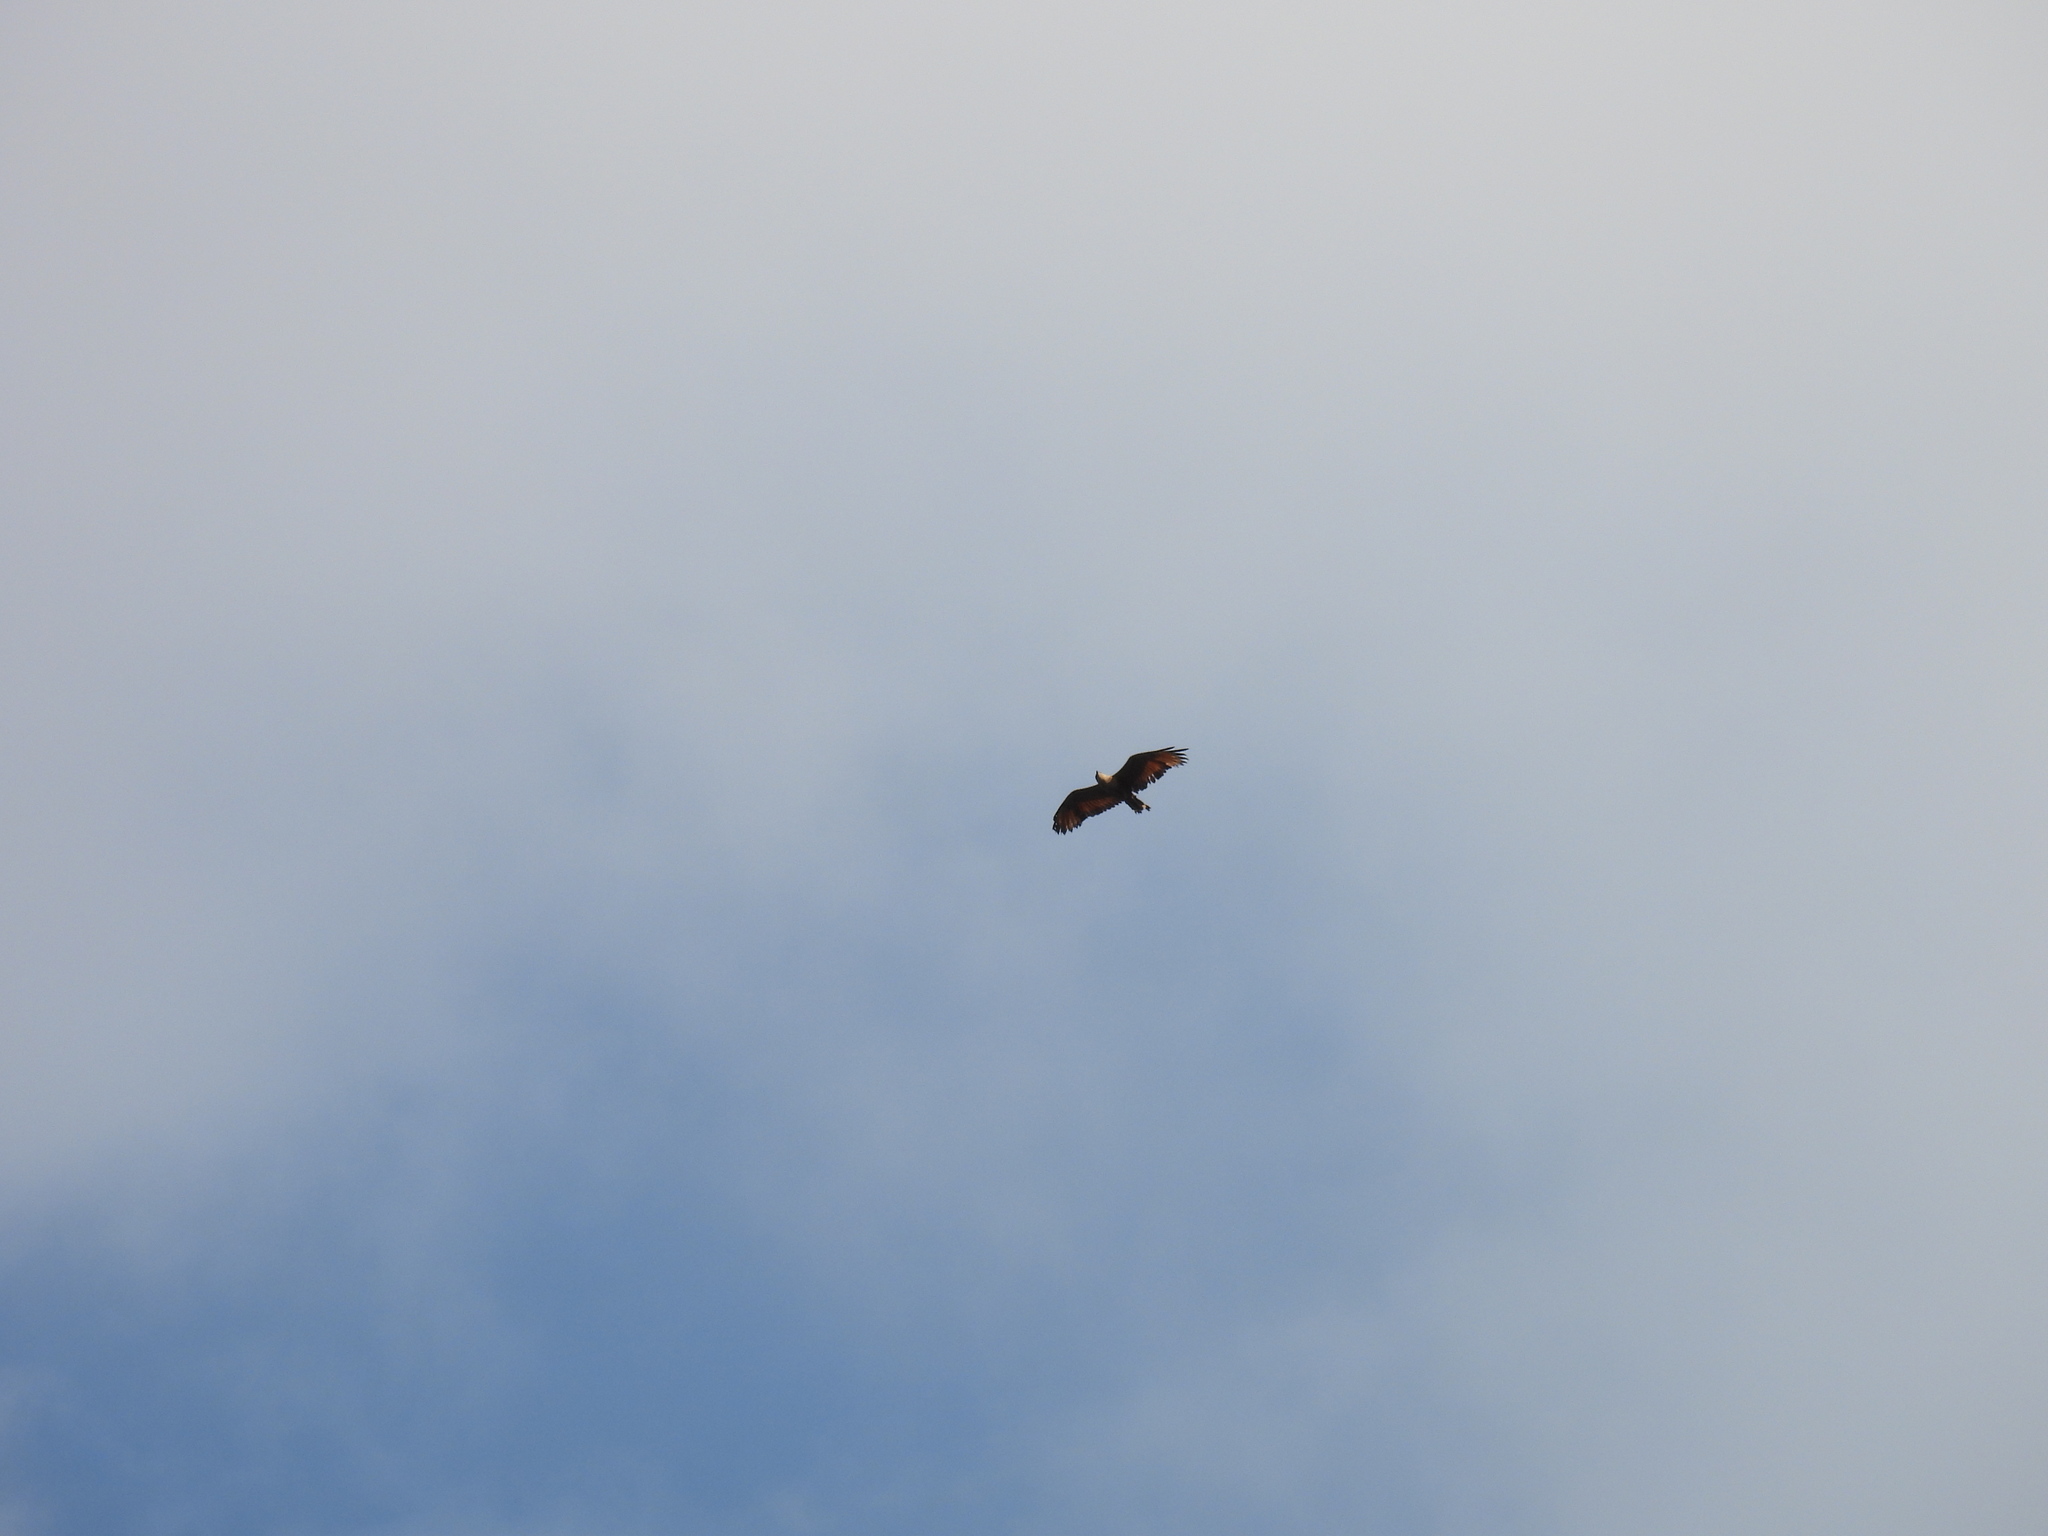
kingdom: Animalia
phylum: Chordata
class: Aves
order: Accipitriformes
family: Accipitridae
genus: Buteogallus
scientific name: Buteogallus meridionalis
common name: Savanna hawk
